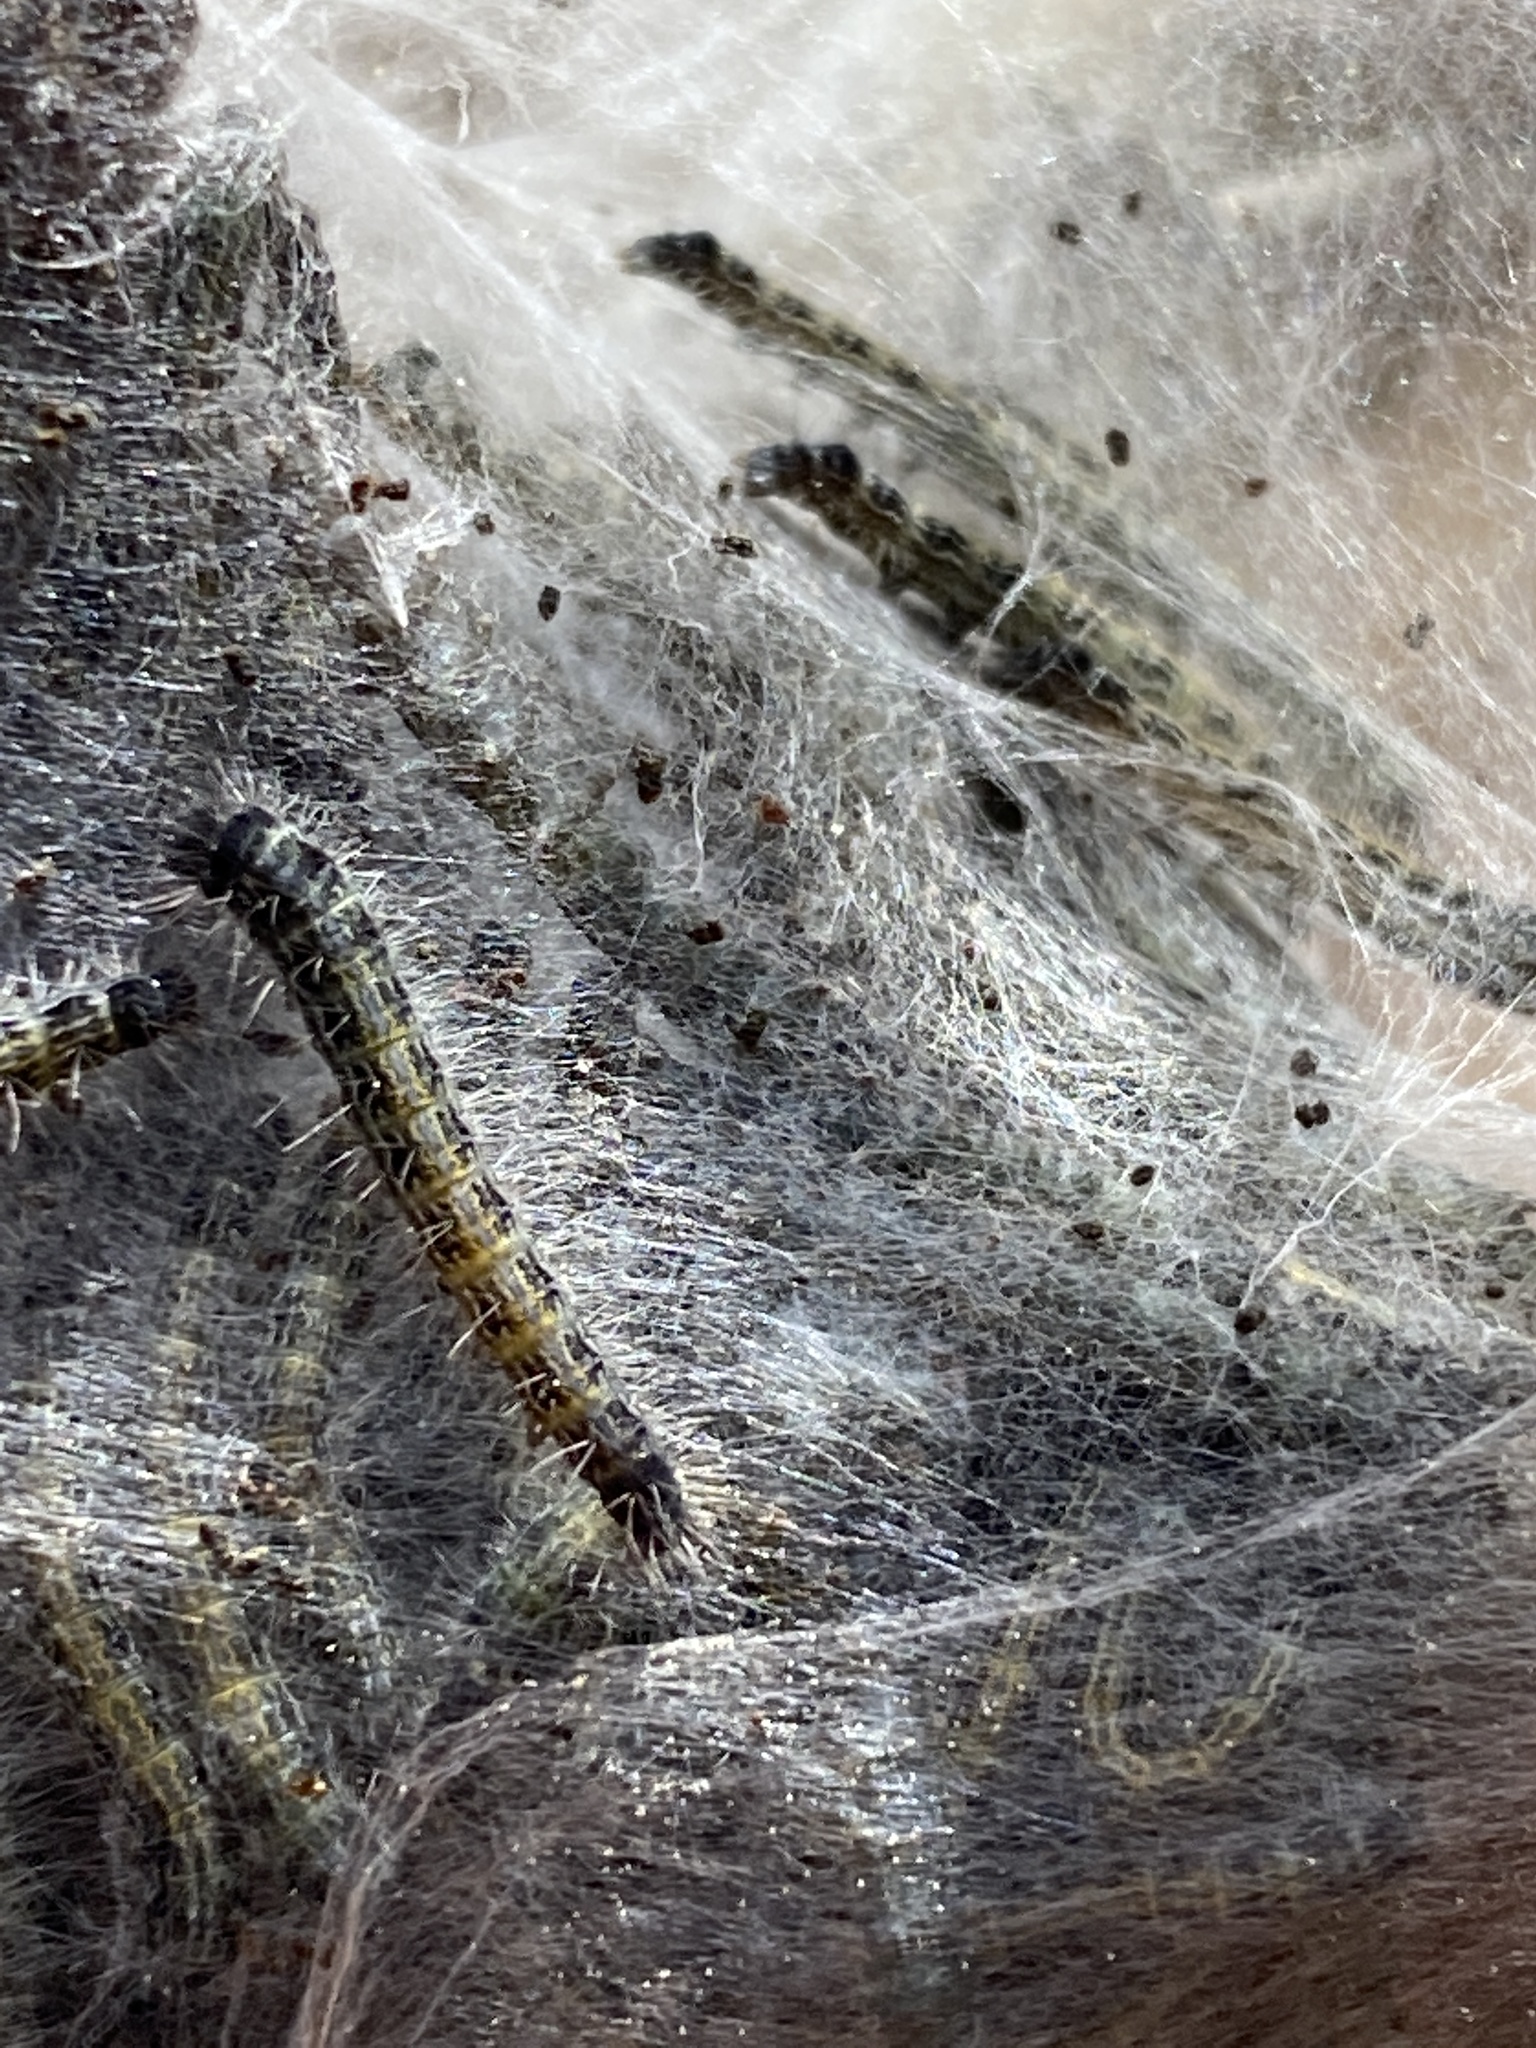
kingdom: Animalia
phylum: Arthropoda
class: Insecta
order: Lepidoptera
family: Lasiocampidae
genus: Malacosoma
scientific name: Malacosoma americana
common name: Eastern tent caterpillar moth
